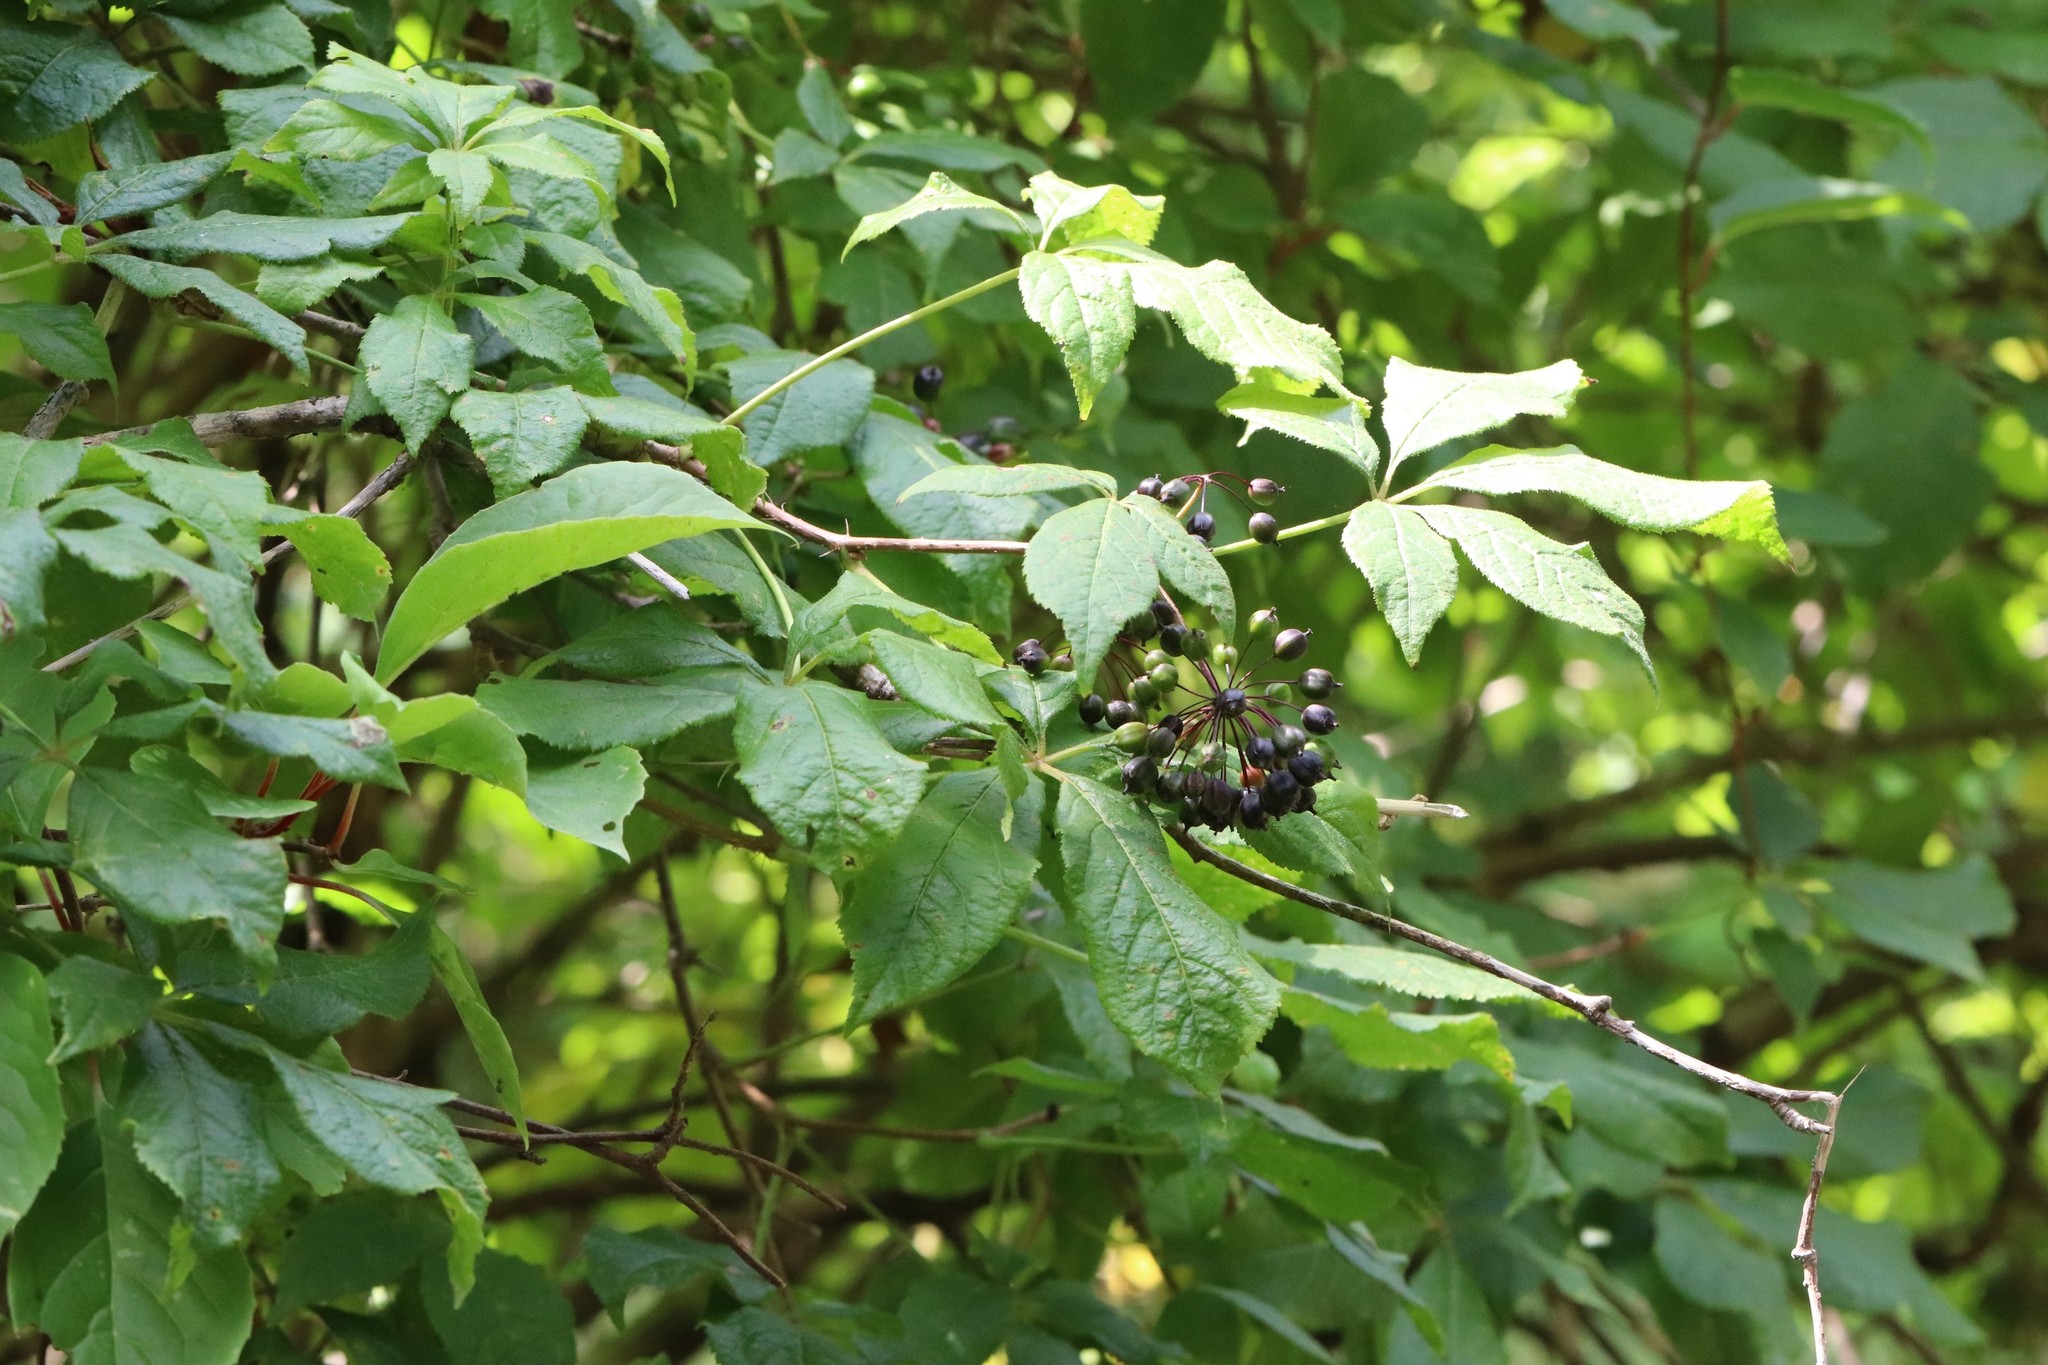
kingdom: Plantae
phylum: Tracheophyta
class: Magnoliopsida
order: Apiales
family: Araliaceae
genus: Eleutherococcus
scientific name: Eleutherococcus senticosus
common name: Siberian-ginseng
